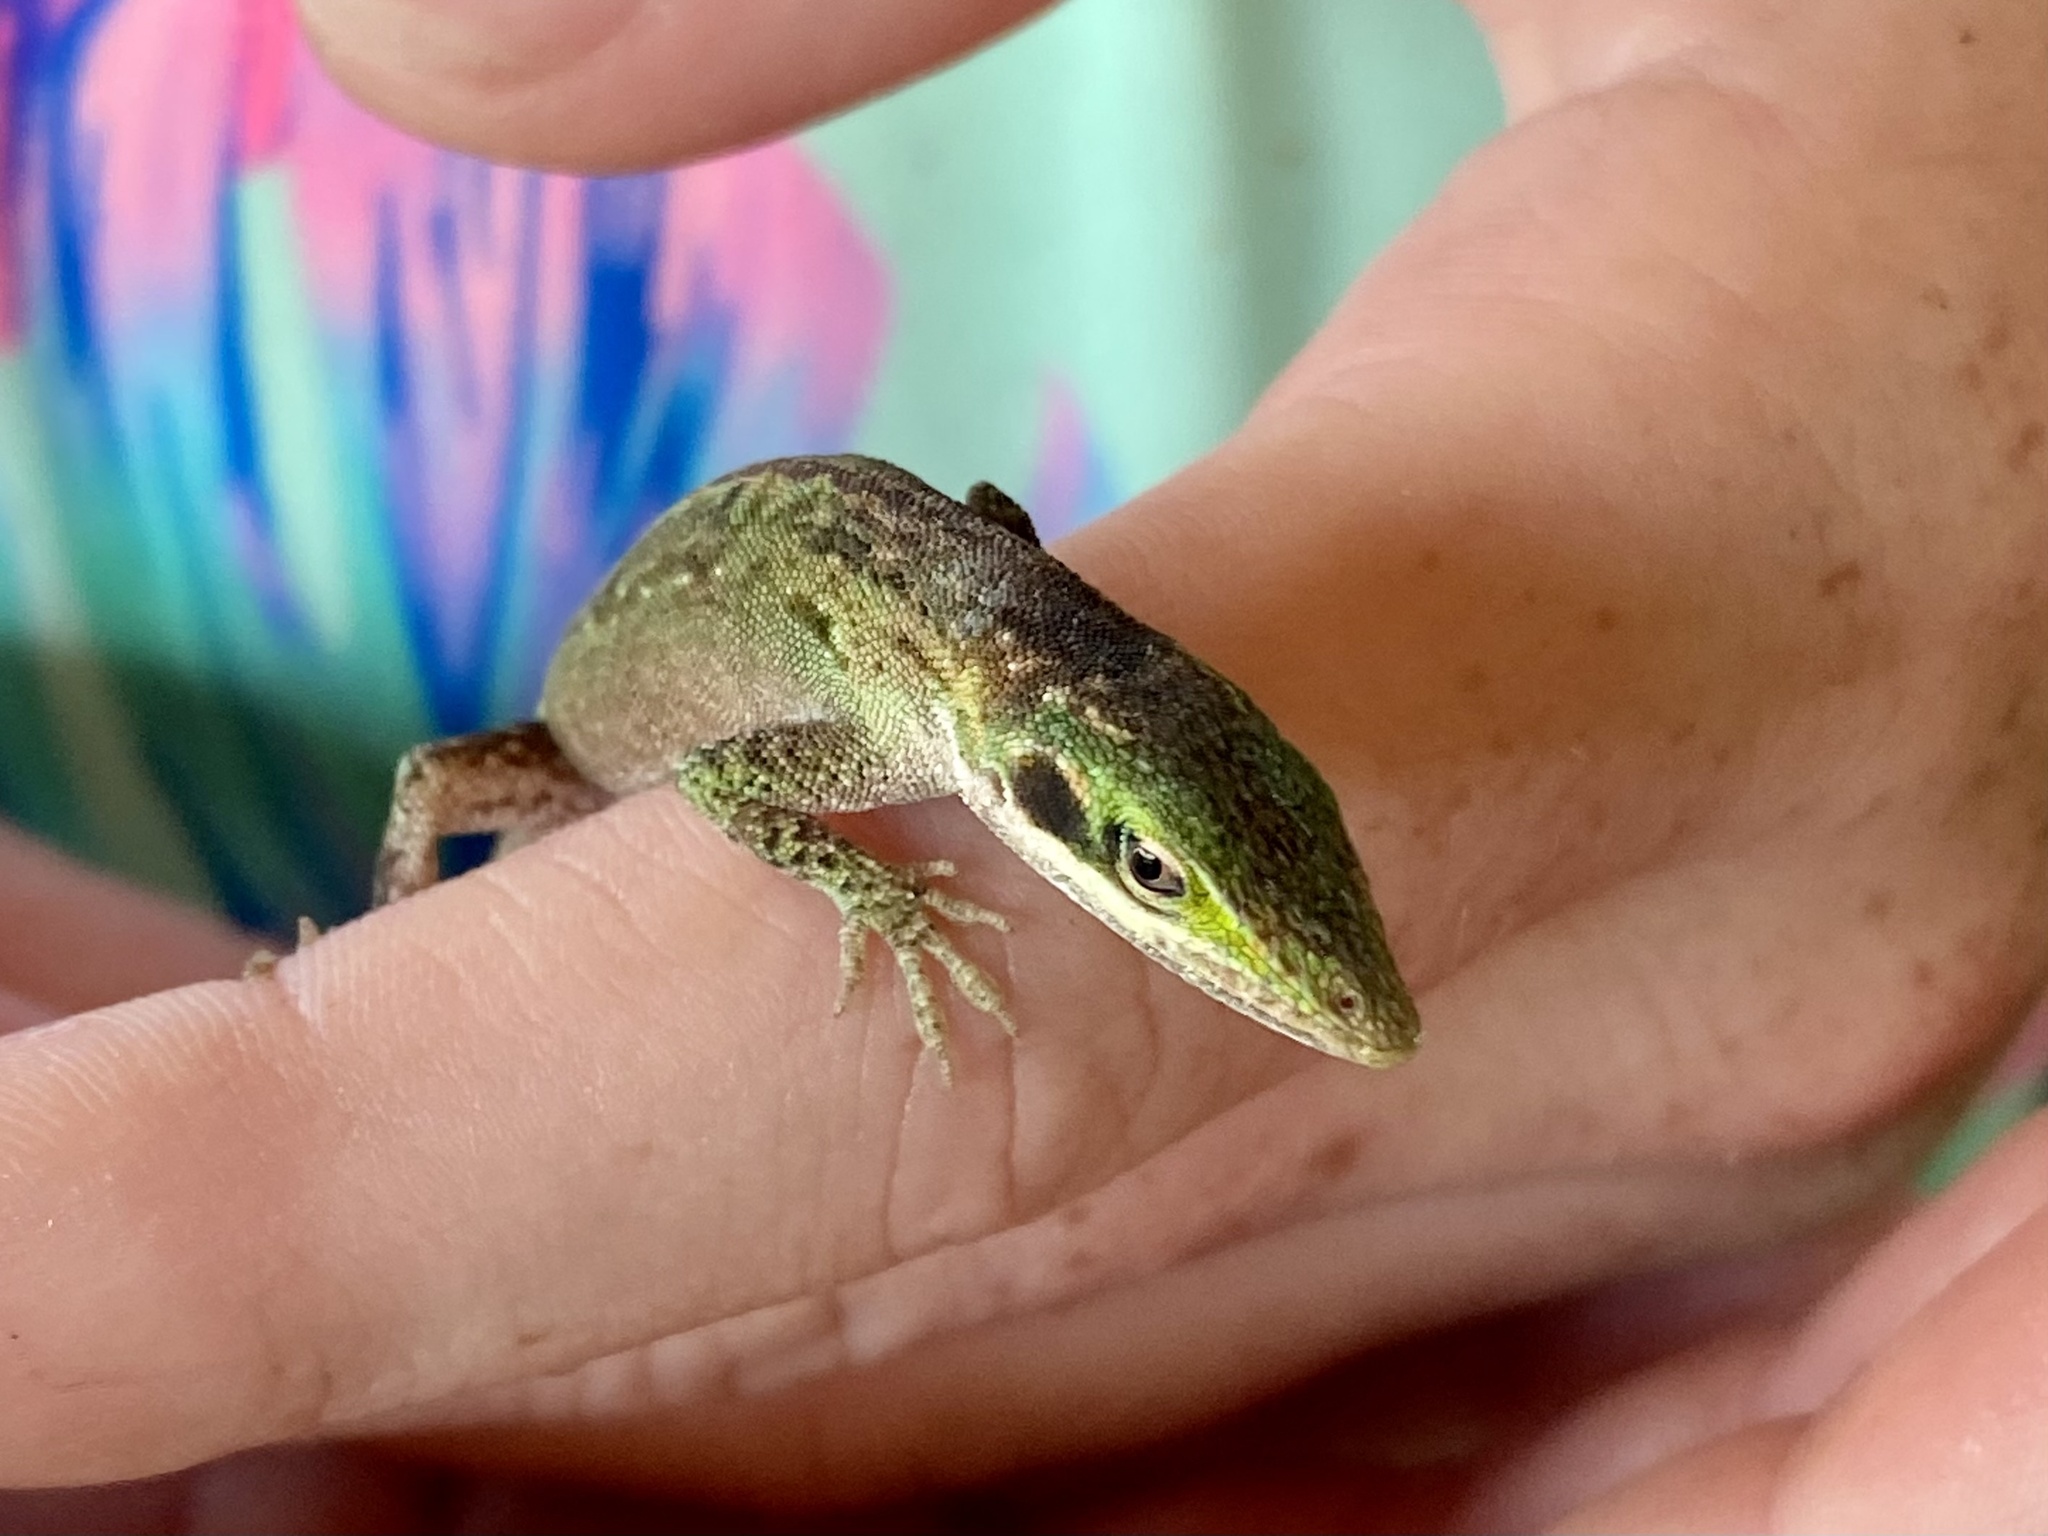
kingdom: Animalia
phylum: Chordata
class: Squamata
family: Dactyloidae
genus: Anolis
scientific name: Anolis carolinensis
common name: Green anole
